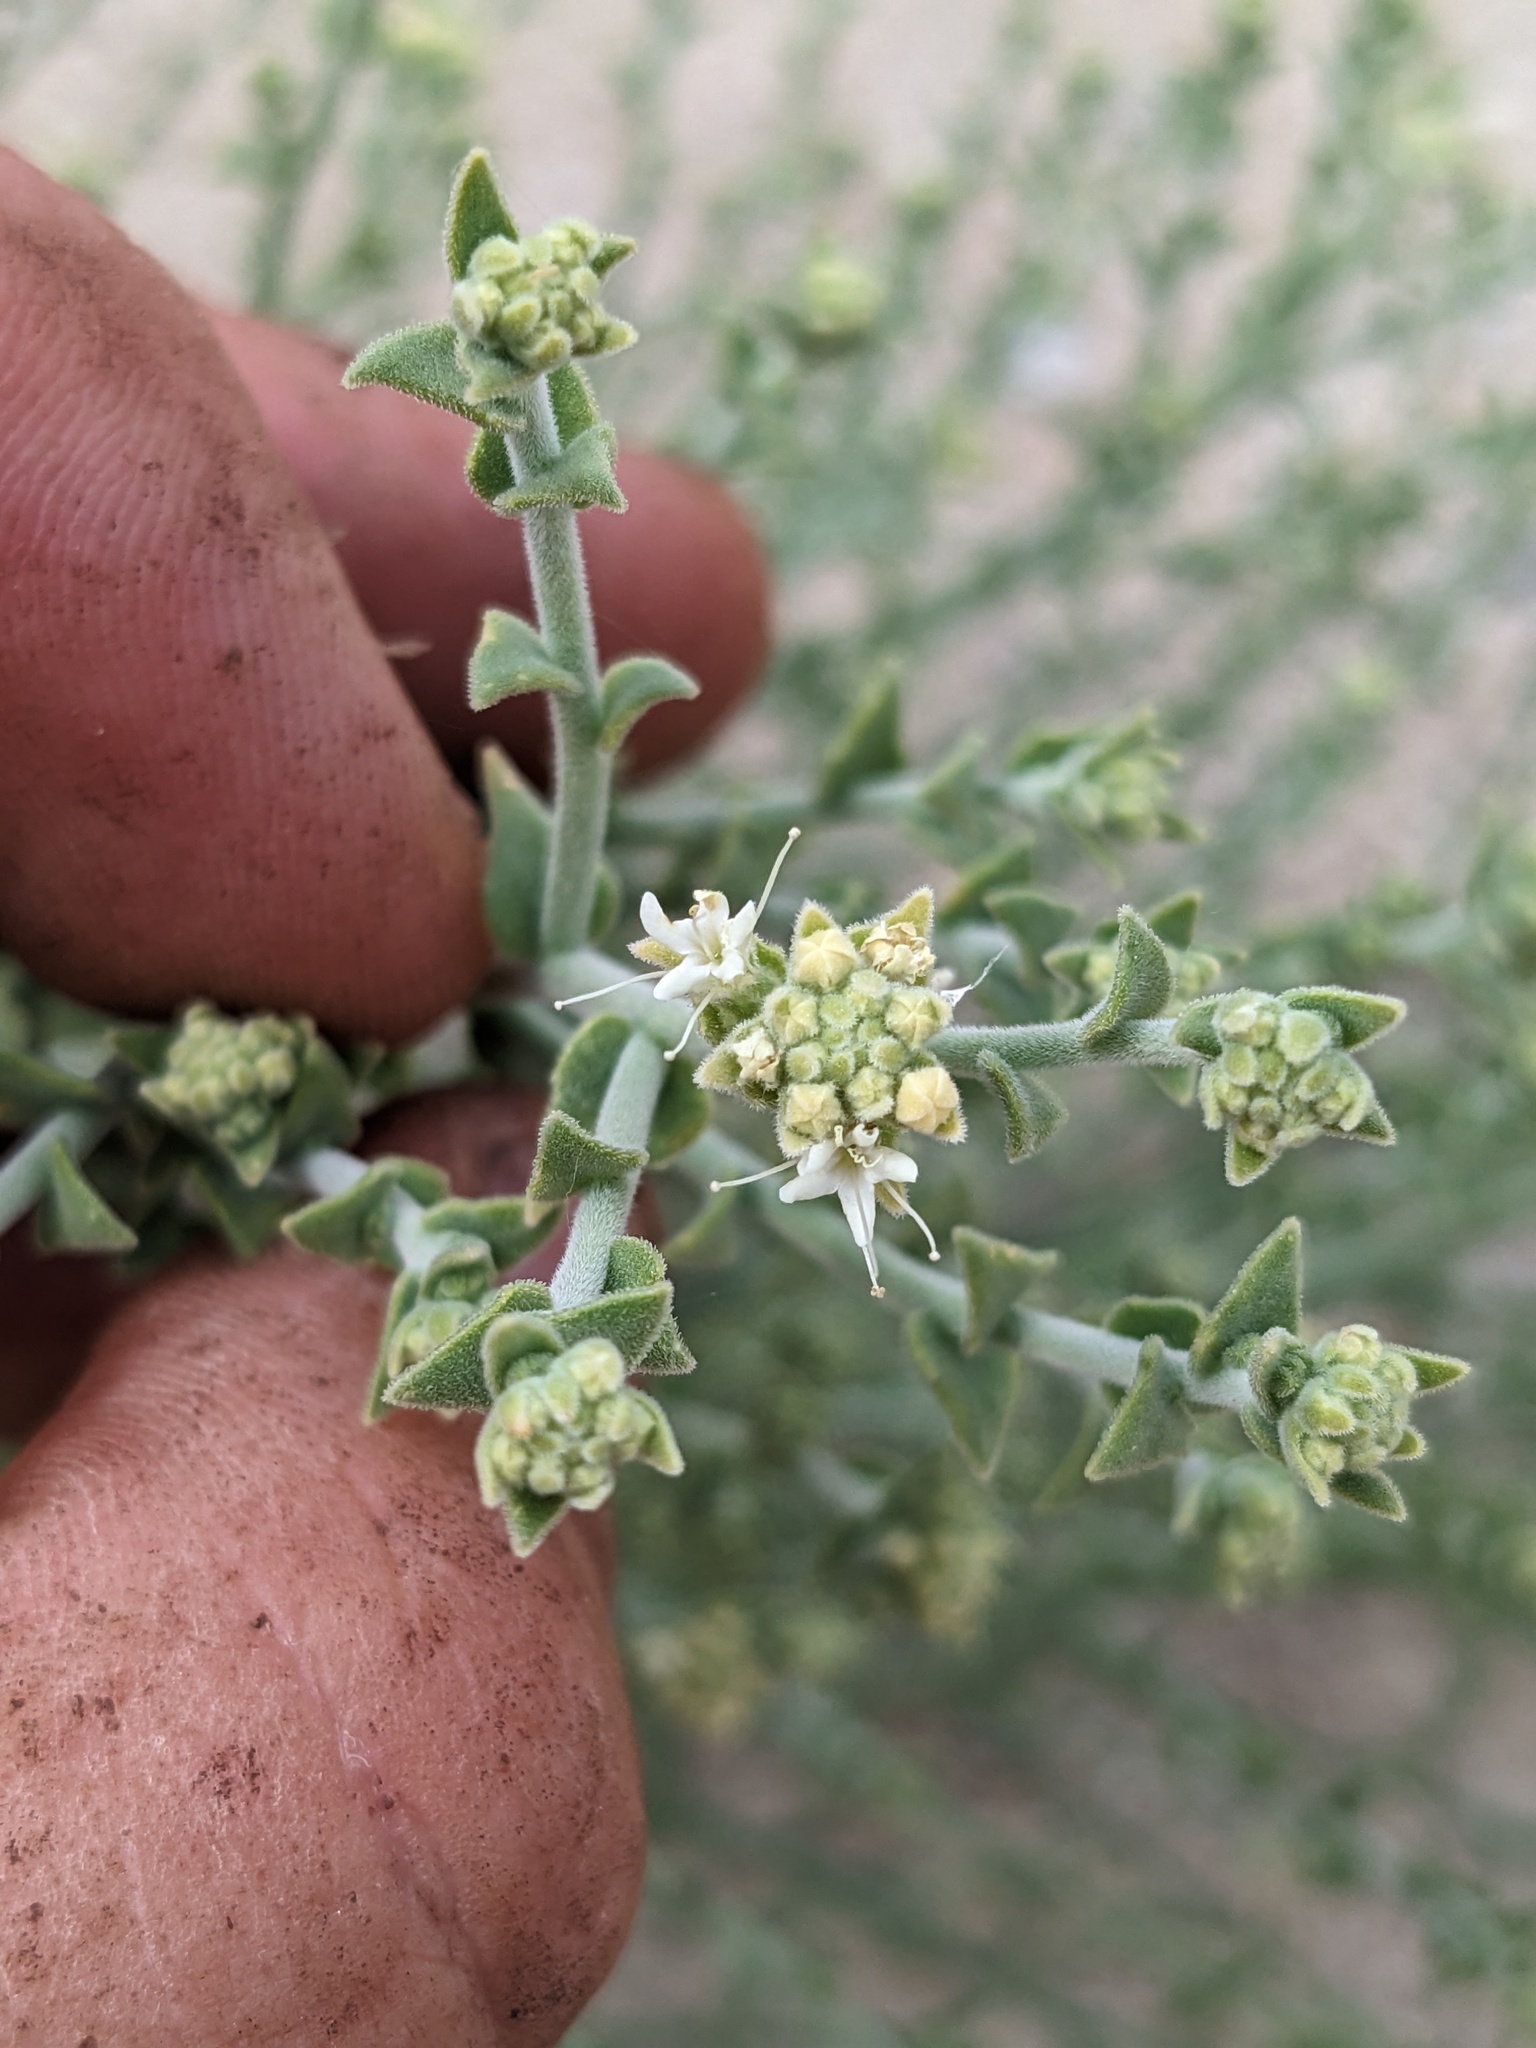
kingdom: Plantae
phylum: Tracheophyta
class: Magnoliopsida
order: Cornales
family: Loasaceae
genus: Petalonyx
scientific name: Petalonyx thurberi
